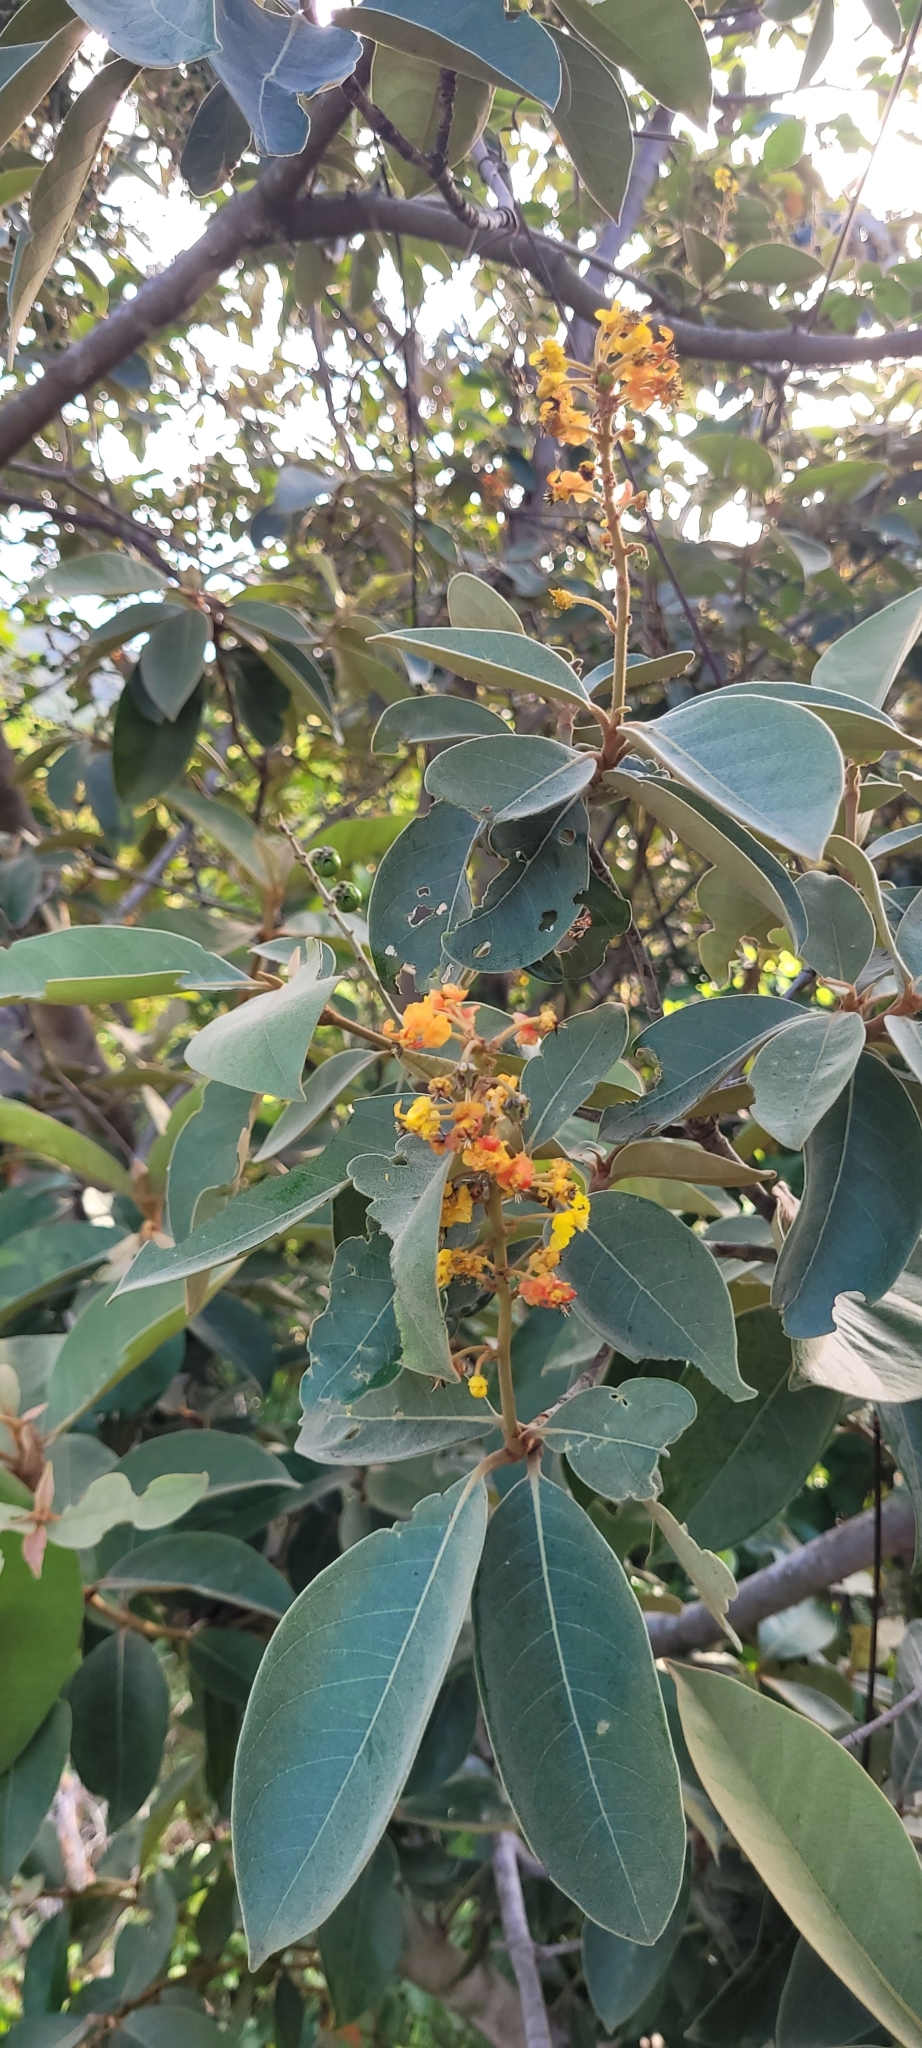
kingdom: Plantae
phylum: Tracheophyta
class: Magnoliopsida
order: Malpighiales
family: Malpighiaceae
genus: Byrsonima
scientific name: Byrsonima crassifolia
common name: Golden spoon
